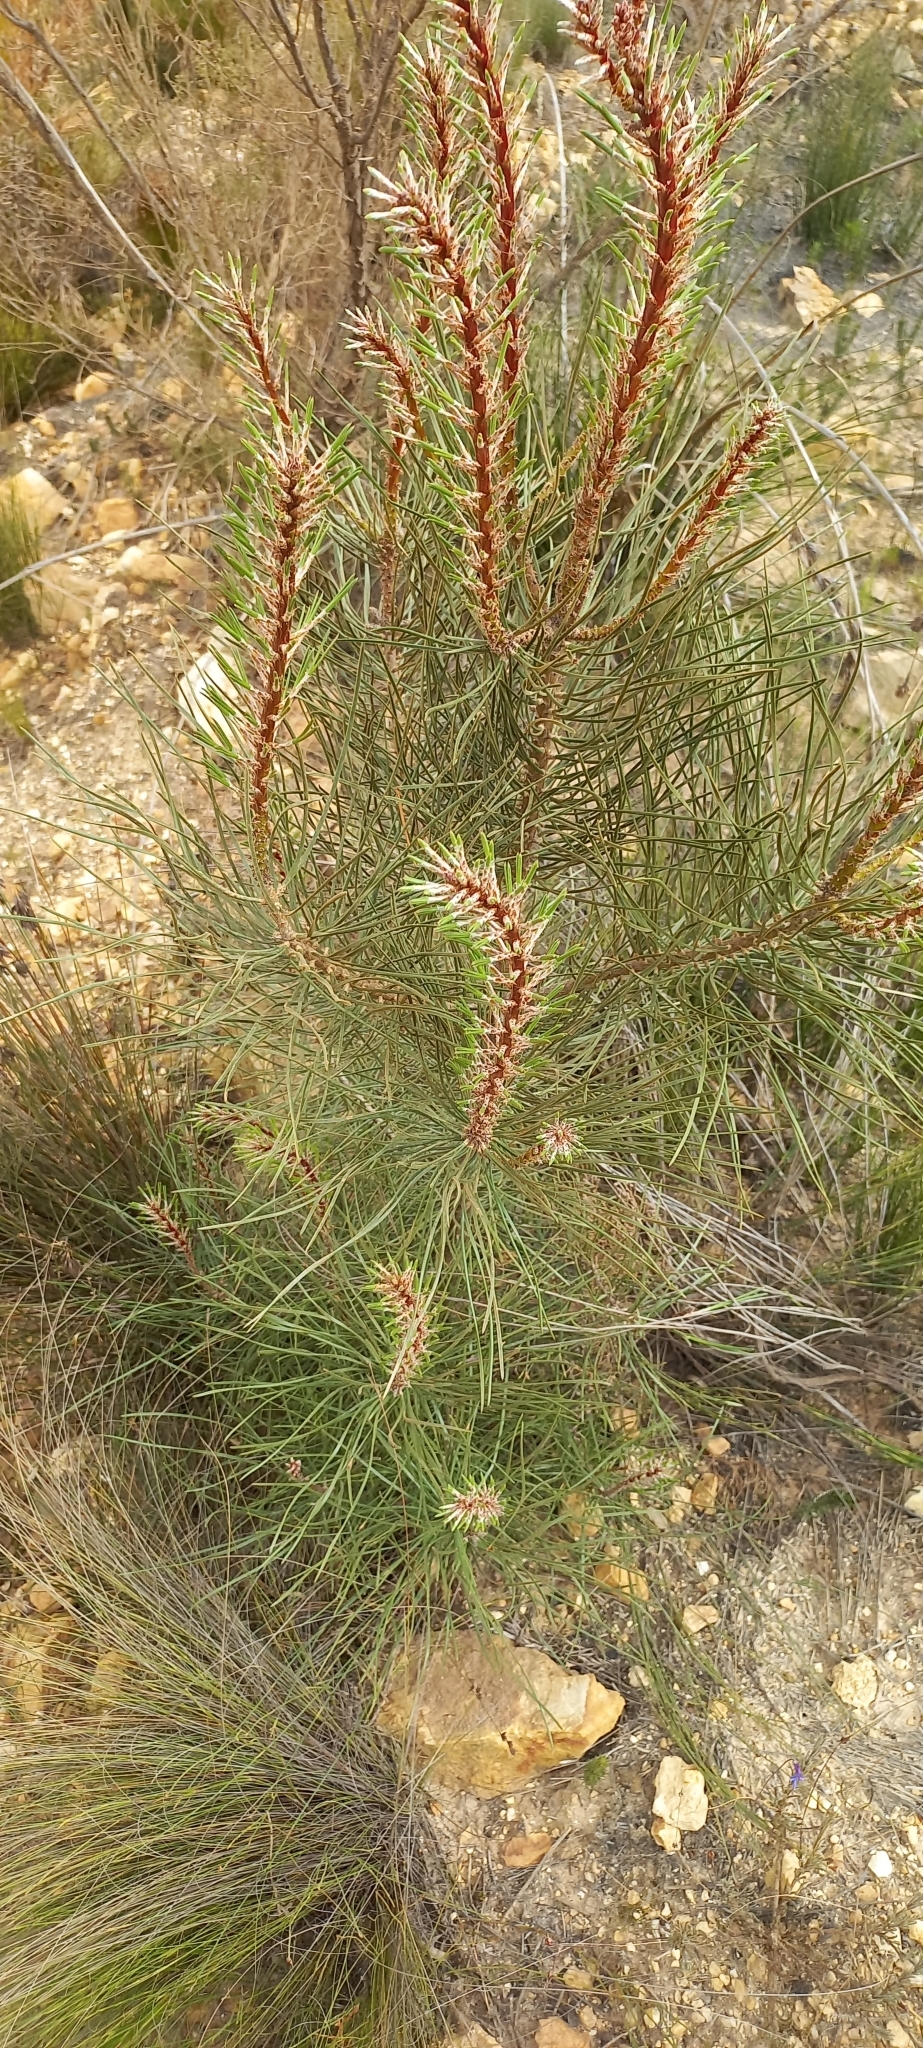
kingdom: Plantae
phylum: Tracheophyta
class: Pinopsida
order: Pinales
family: Pinaceae
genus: Pinus
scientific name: Pinus pinaster
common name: Maritime pine
